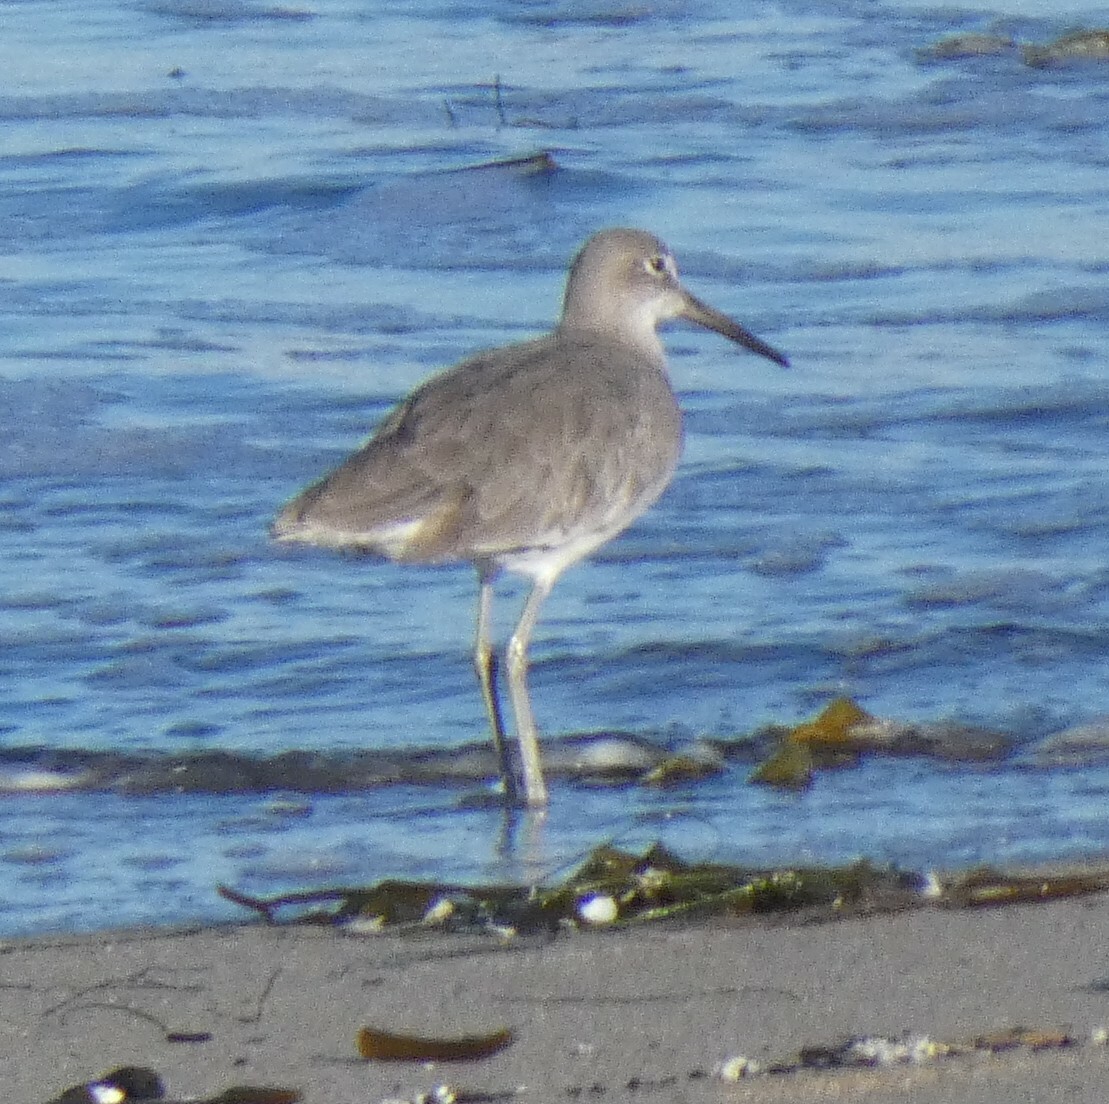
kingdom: Animalia
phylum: Chordata
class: Aves
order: Charadriiformes
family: Scolopacidae
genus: Tringa
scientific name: Tringa semipalmata
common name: Willet
